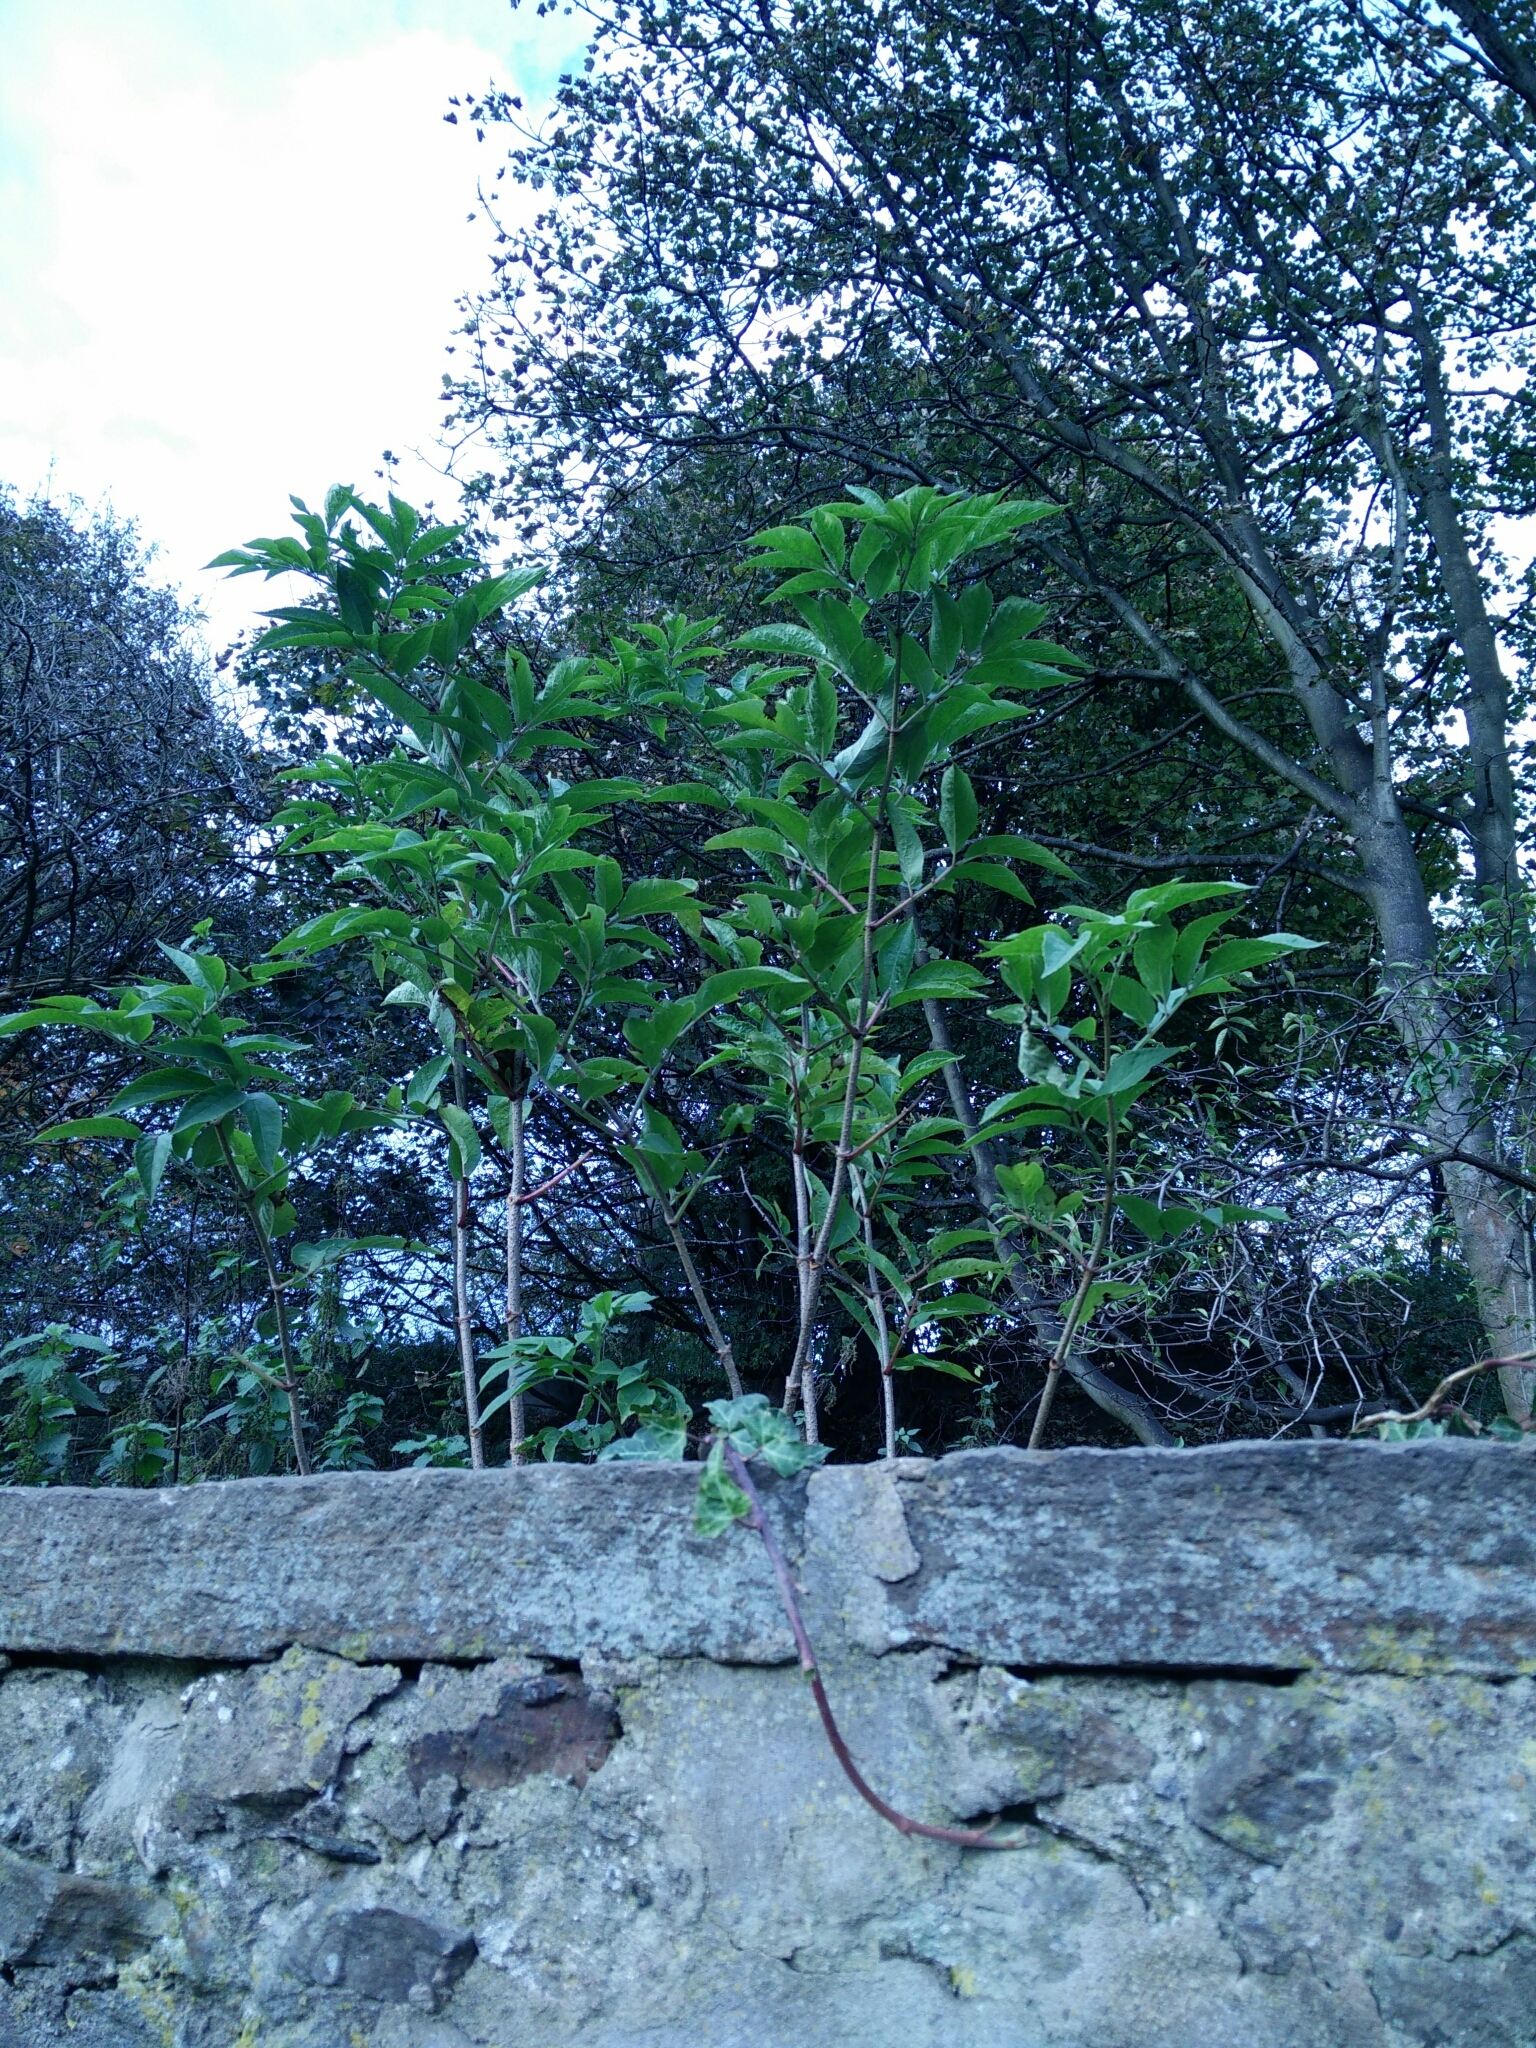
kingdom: Plantae
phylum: Tracheophyta
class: Magnoliopsida
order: Dipsacales
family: Viburnaceae
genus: Sambucus
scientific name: Sambucus nigra
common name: Elder
